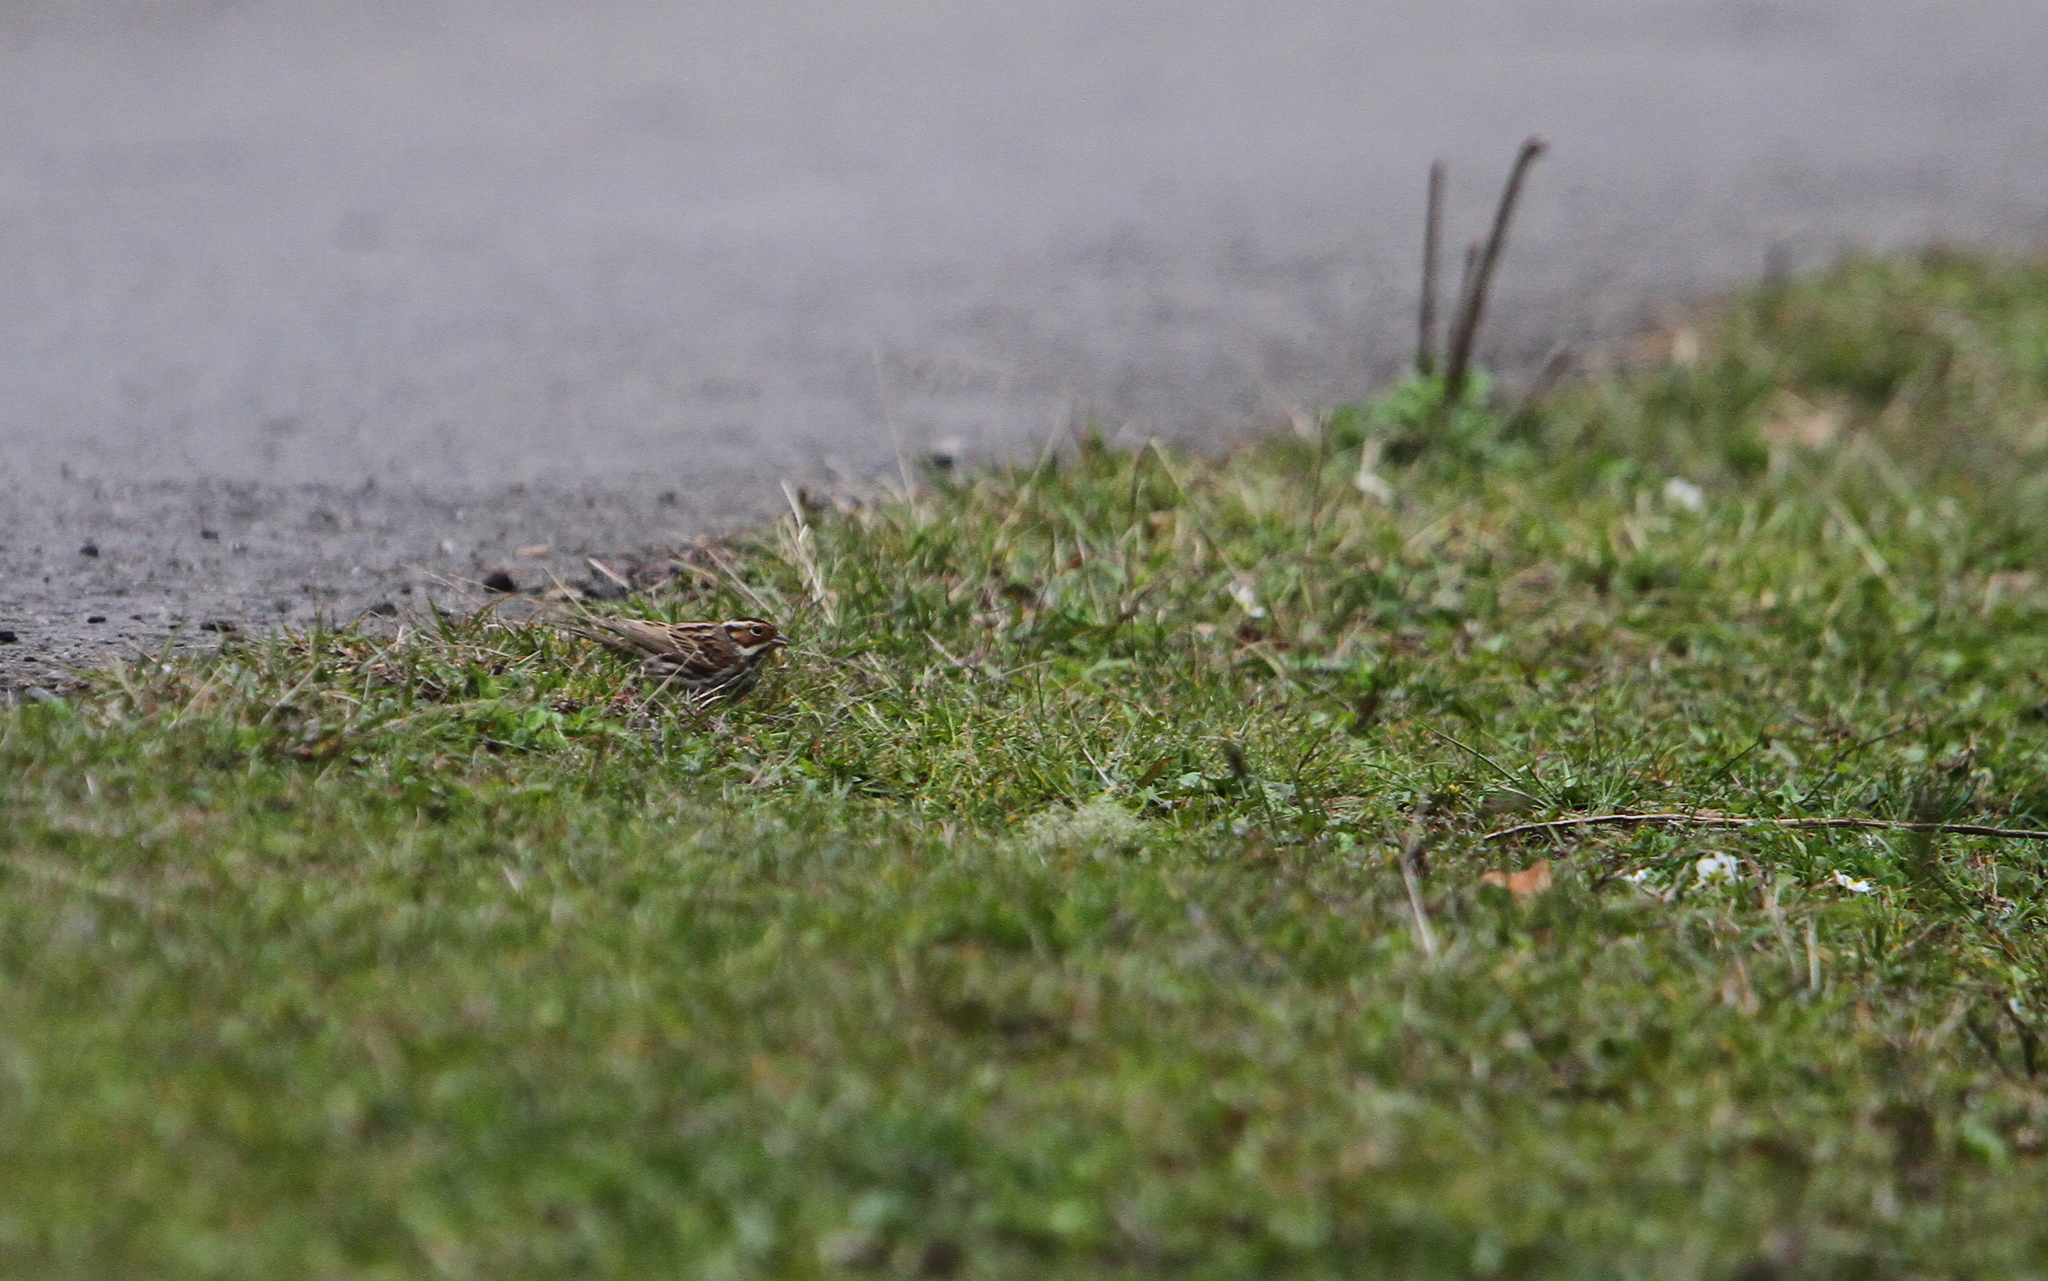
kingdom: Animalia
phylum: Chordata
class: Aves
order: Passeriformes
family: Emberizidae
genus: Emberiza
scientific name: Emberiza pusilla
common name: Little bunting
